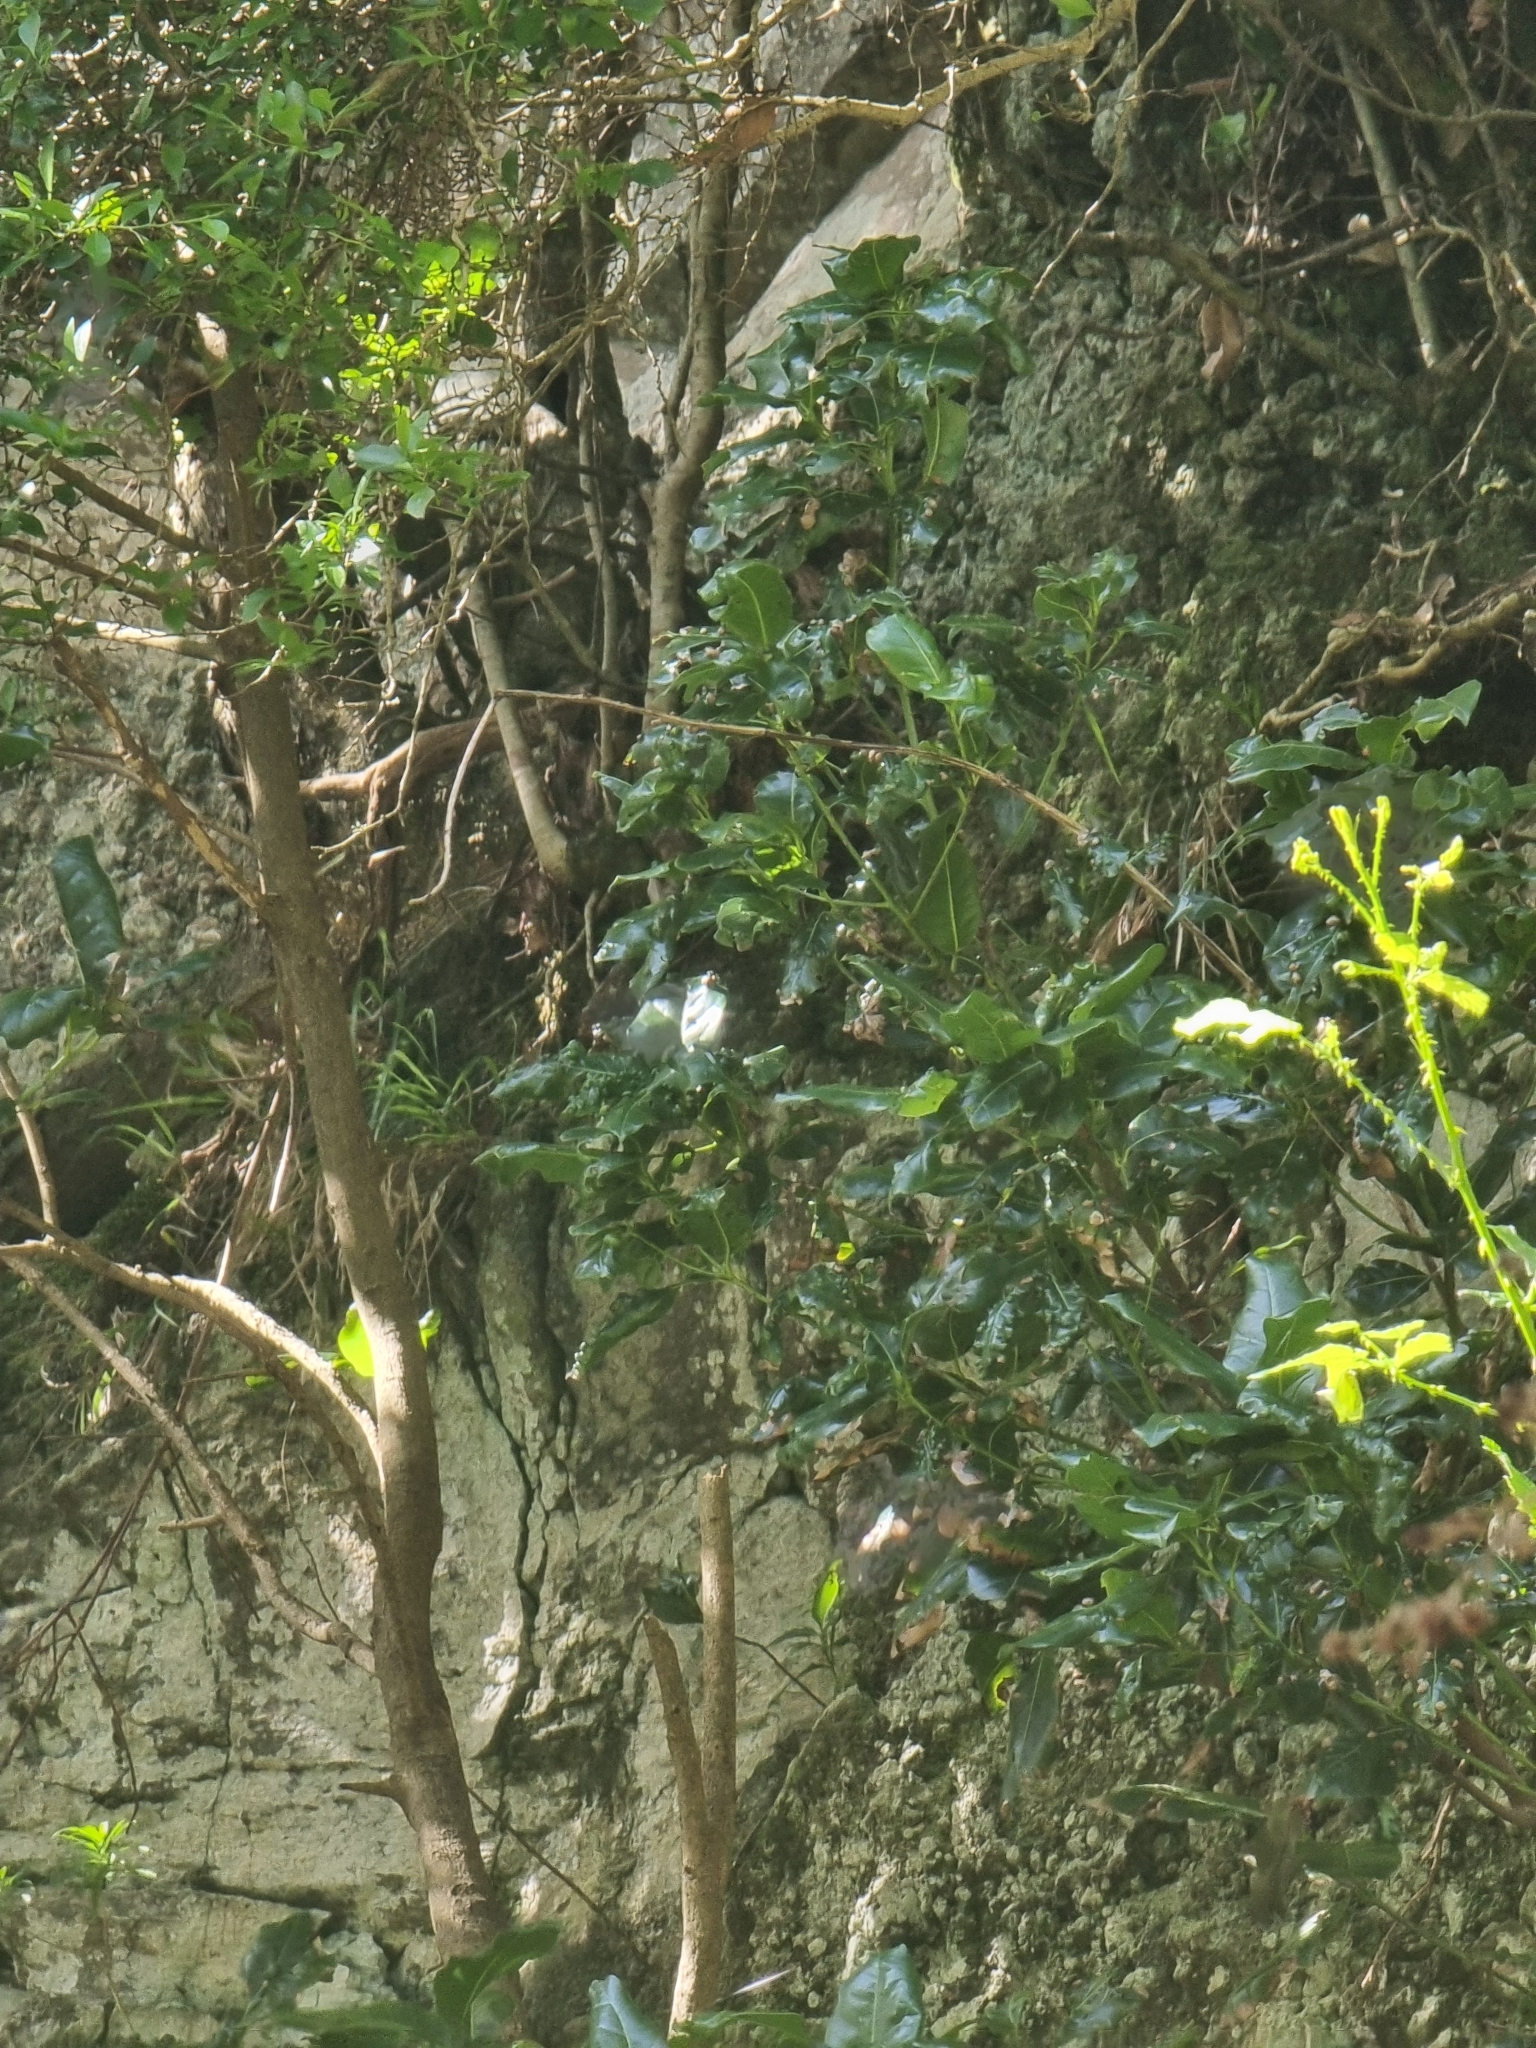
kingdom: Plantae
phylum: Tracheophyta
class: Magnoliopsida
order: Laurales
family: Lauraceae
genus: Apollonias
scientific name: Apollonias barbujana
